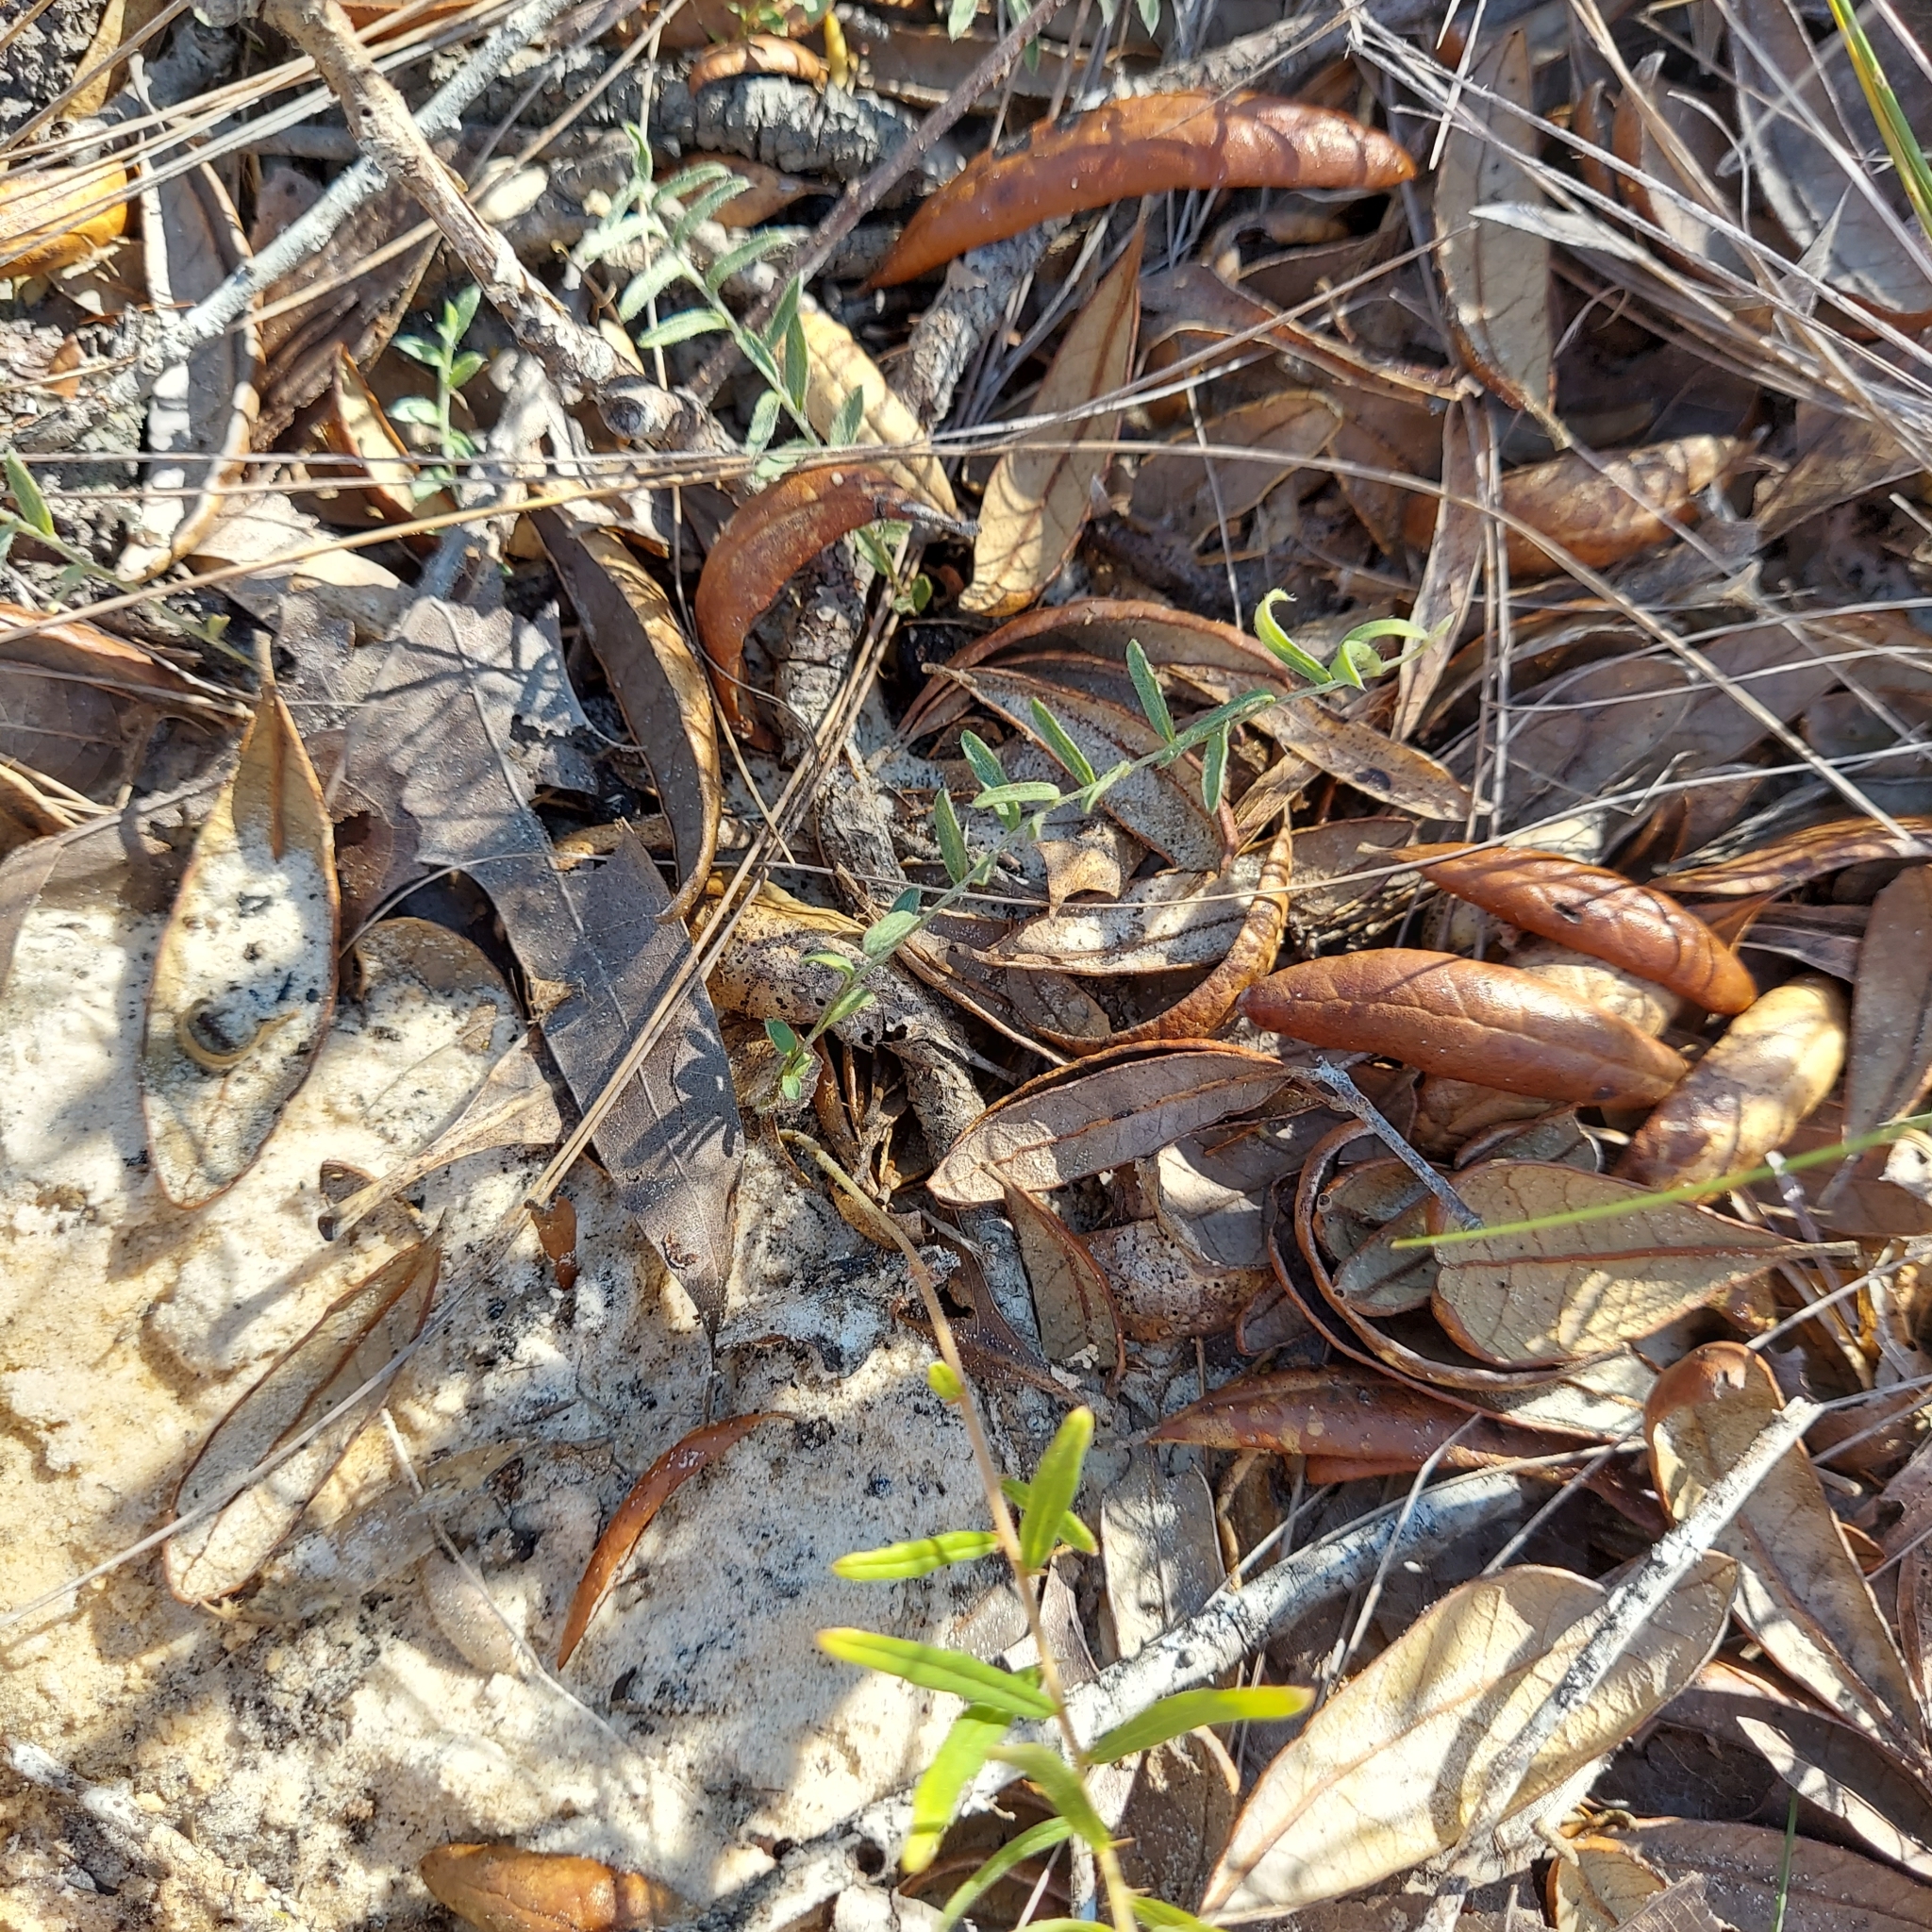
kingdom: Plantae
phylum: Tracheophyta
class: Magnoliopsida
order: Solanales
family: Convolvulaceae
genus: Stylisma
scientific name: Stylisma abdita
